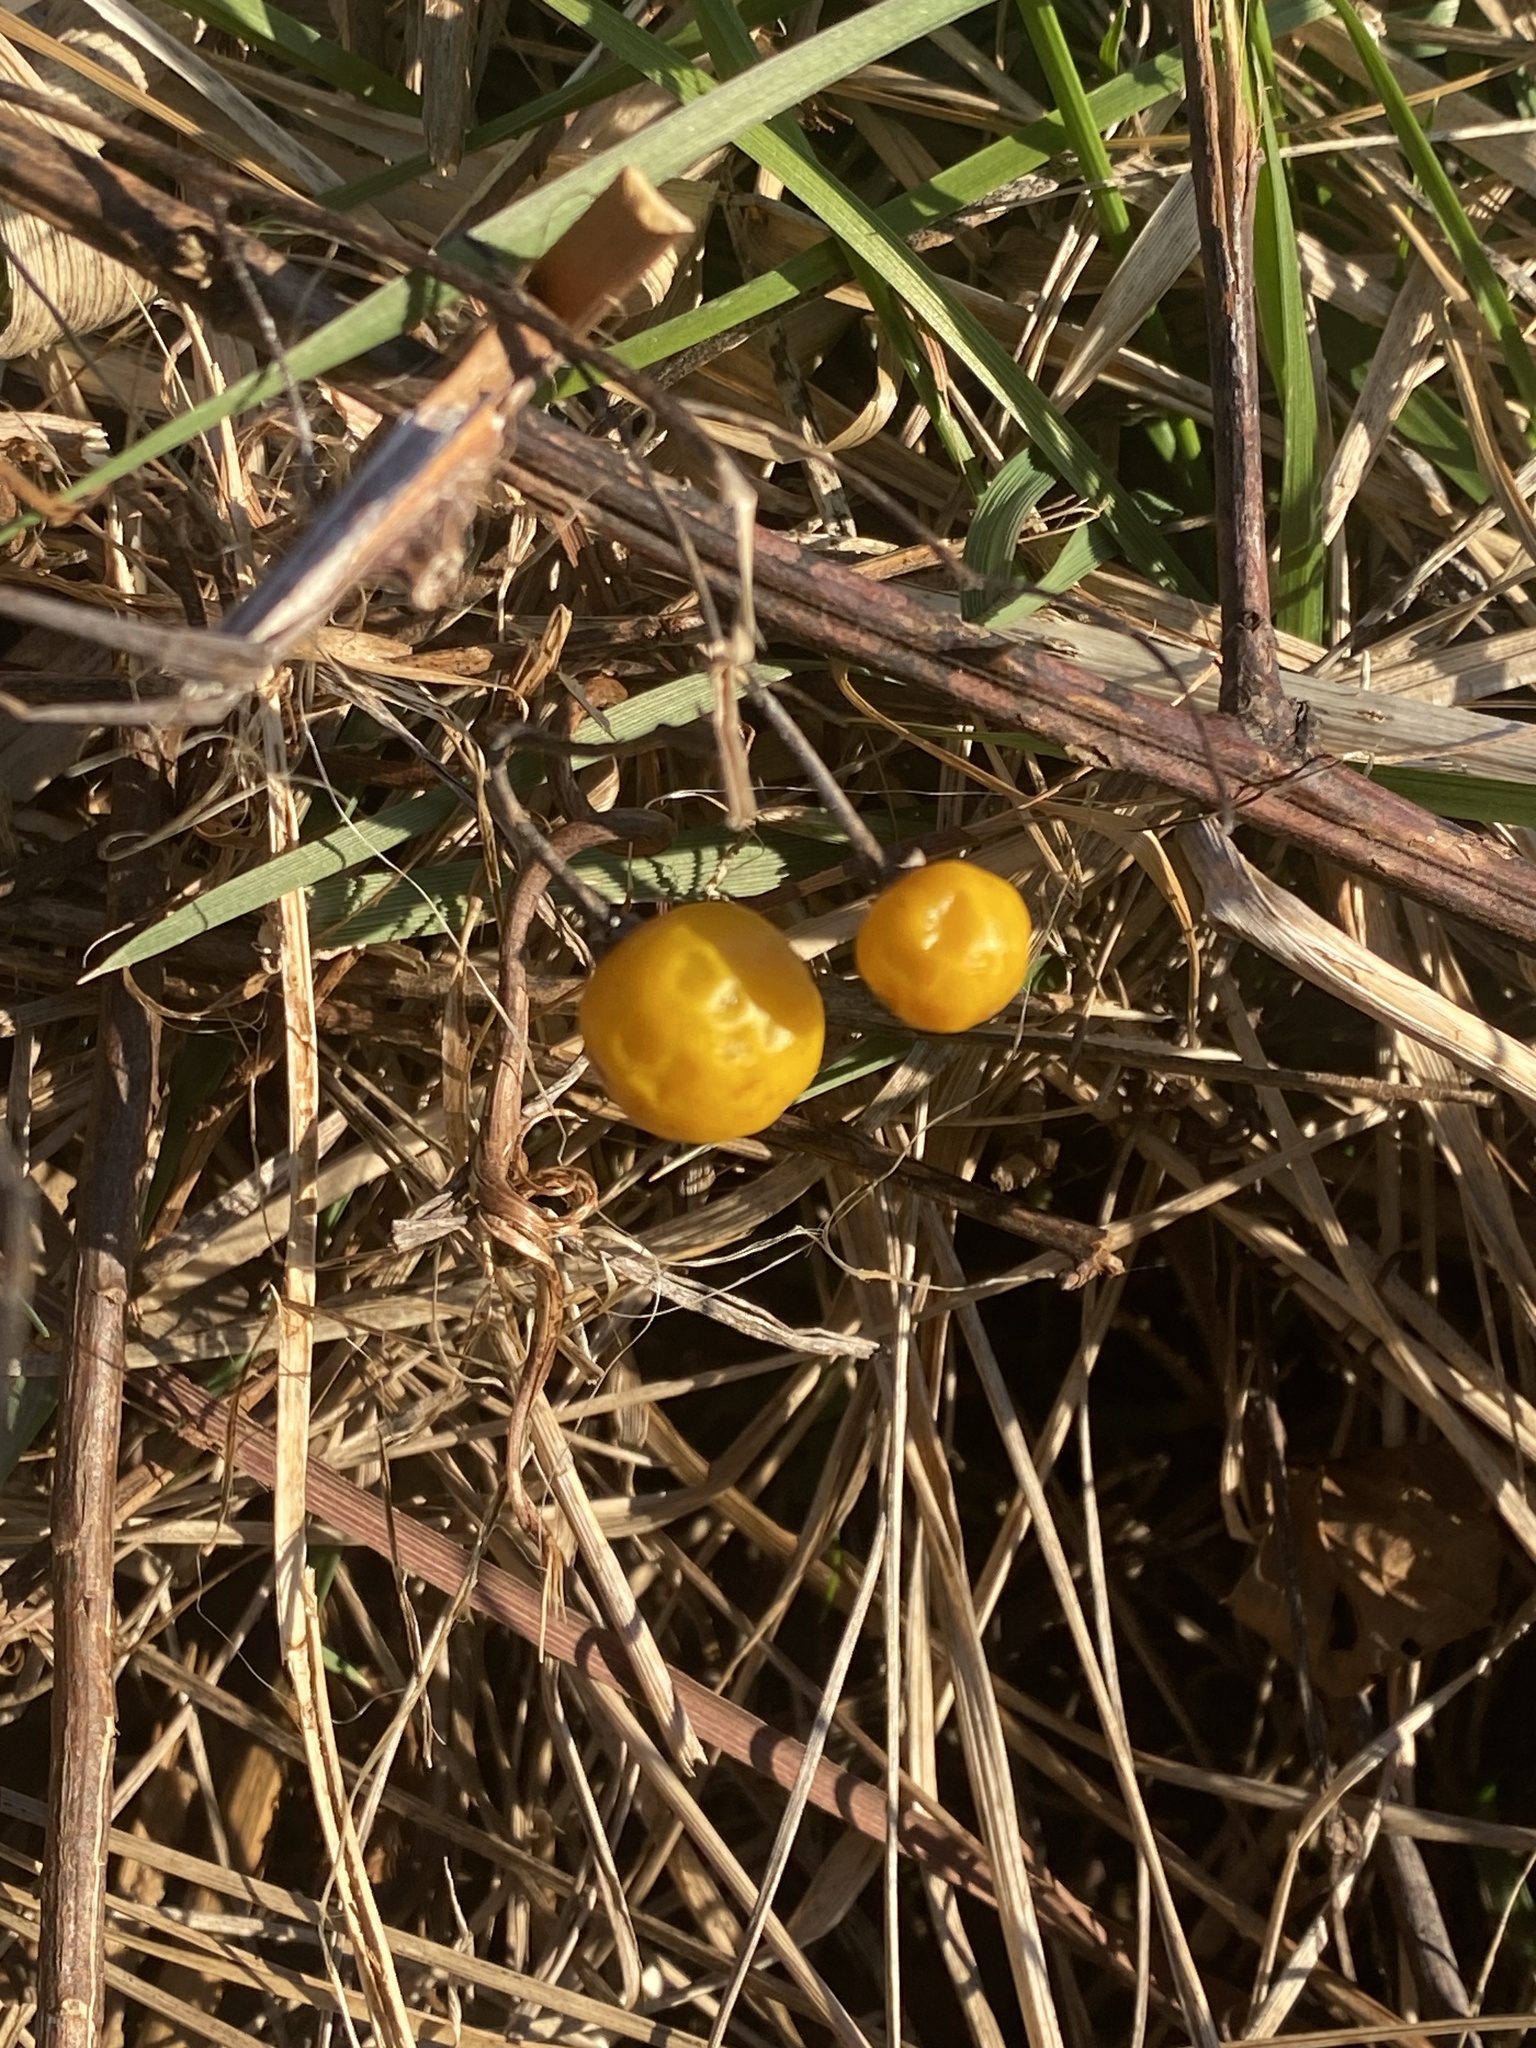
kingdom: Plantae
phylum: Tracheophyta
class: Magnoliopsida
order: Solanales
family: Solanaceae
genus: Solanum
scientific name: Solanum carolinense
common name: Horse-nettle
